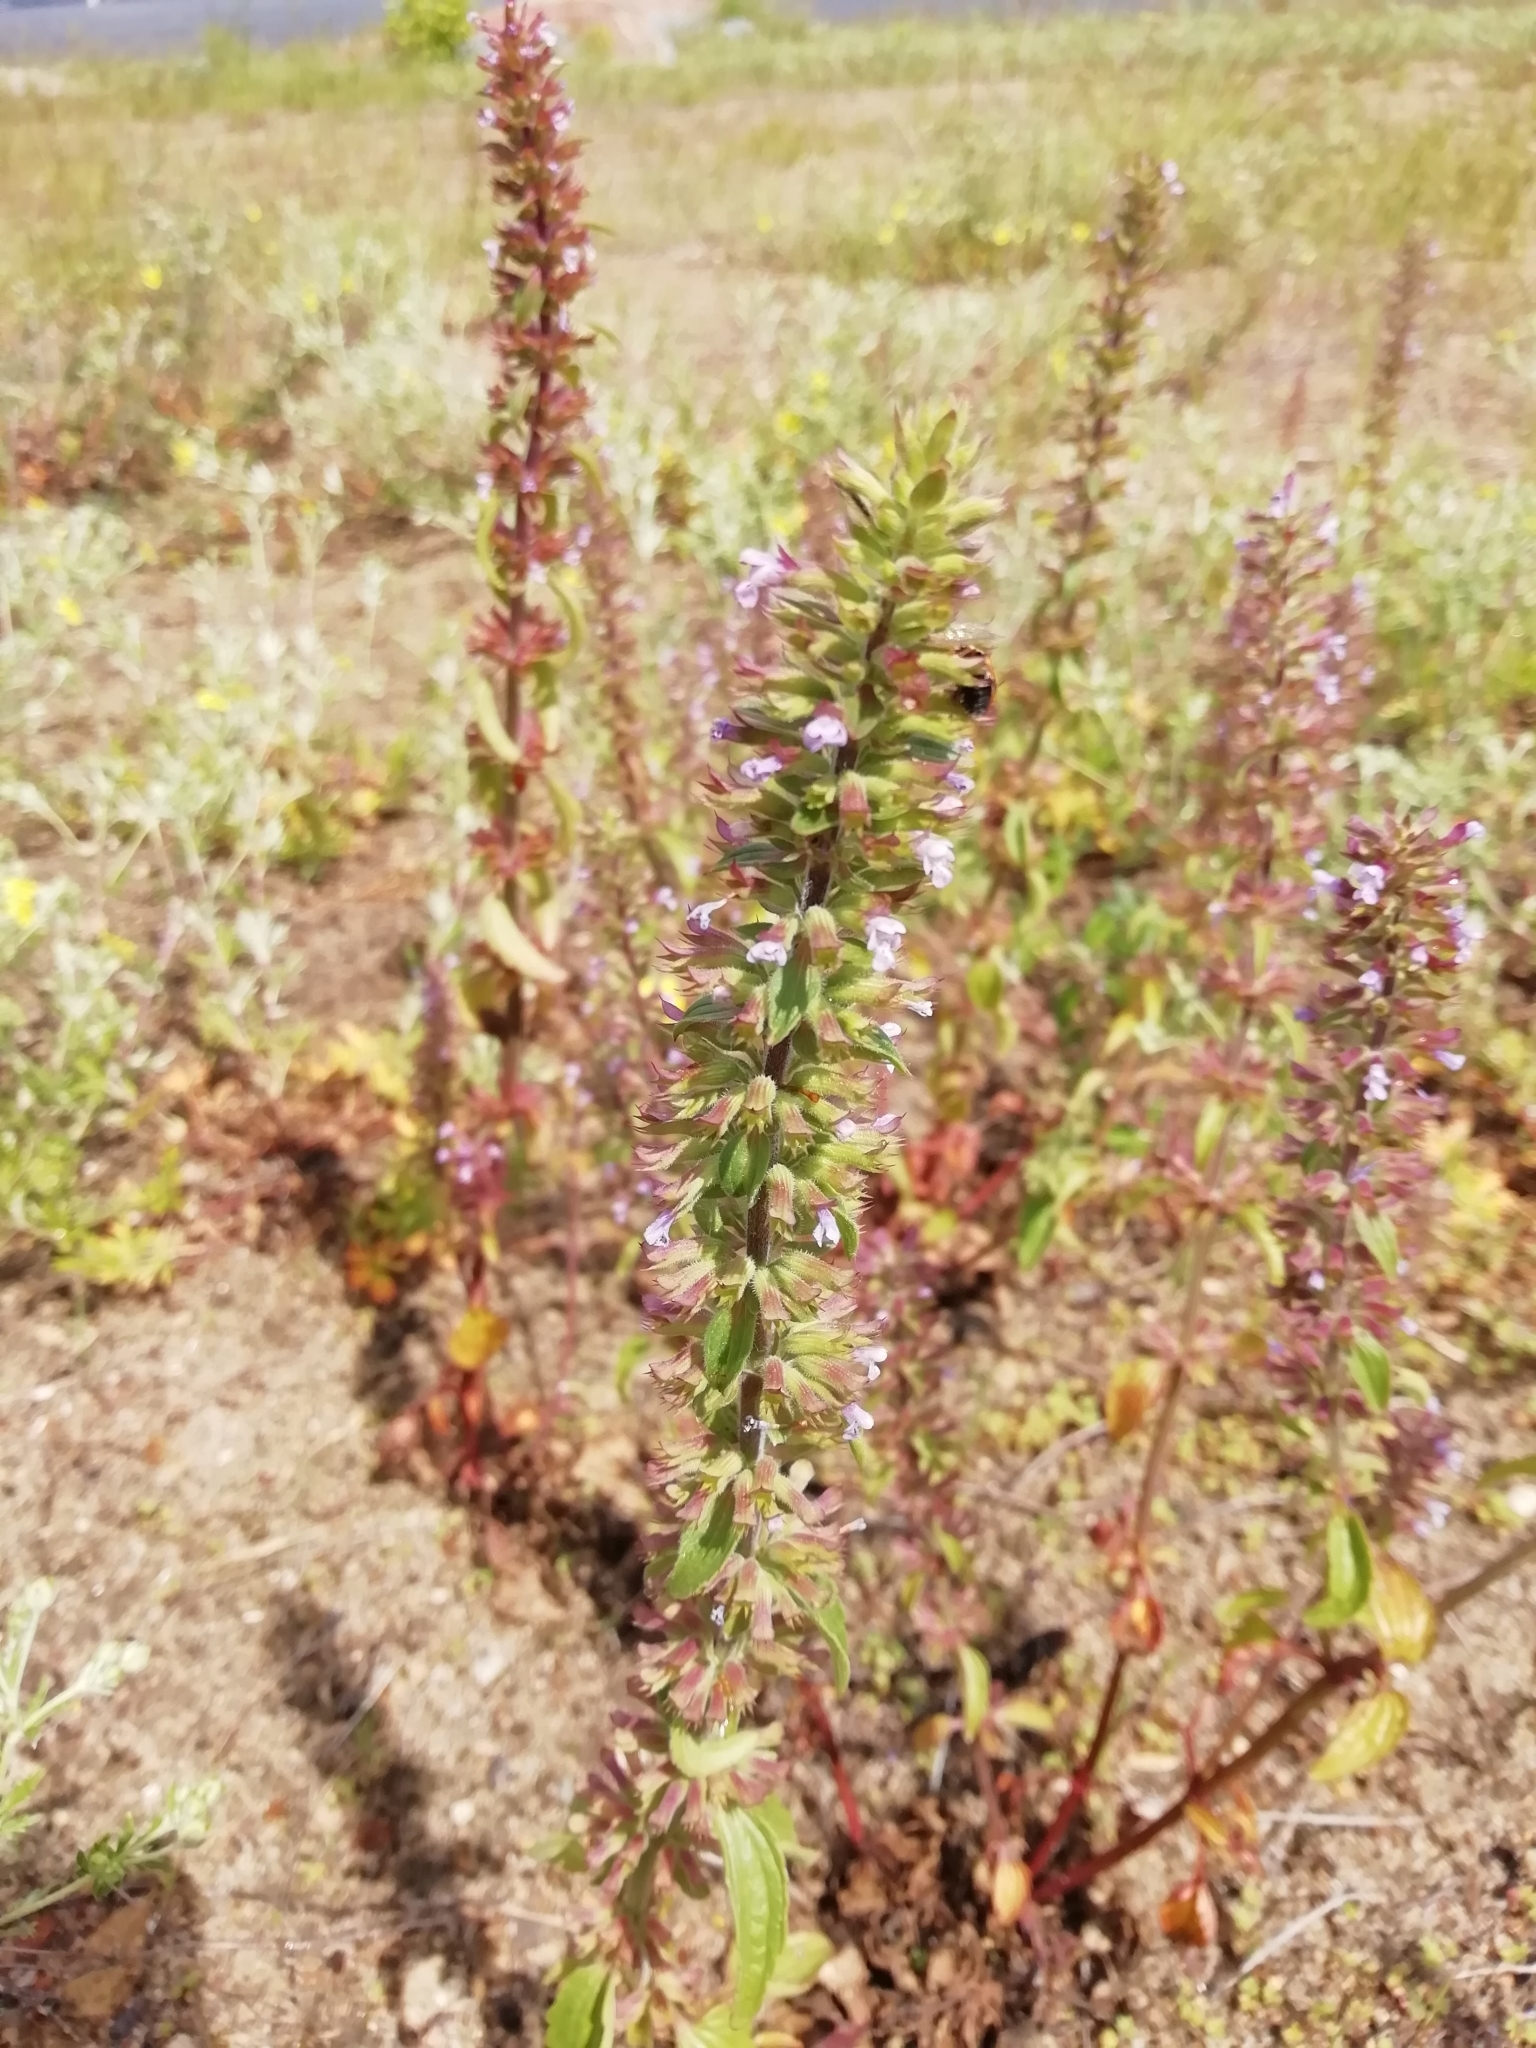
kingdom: Plantae
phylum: Tracheophyta
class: Magnoliopsida
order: Lamiales
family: Lamiaceae
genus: Dracocephalum
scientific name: Dracocephalum thymiflorum
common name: Thymeleaf dragonhead
